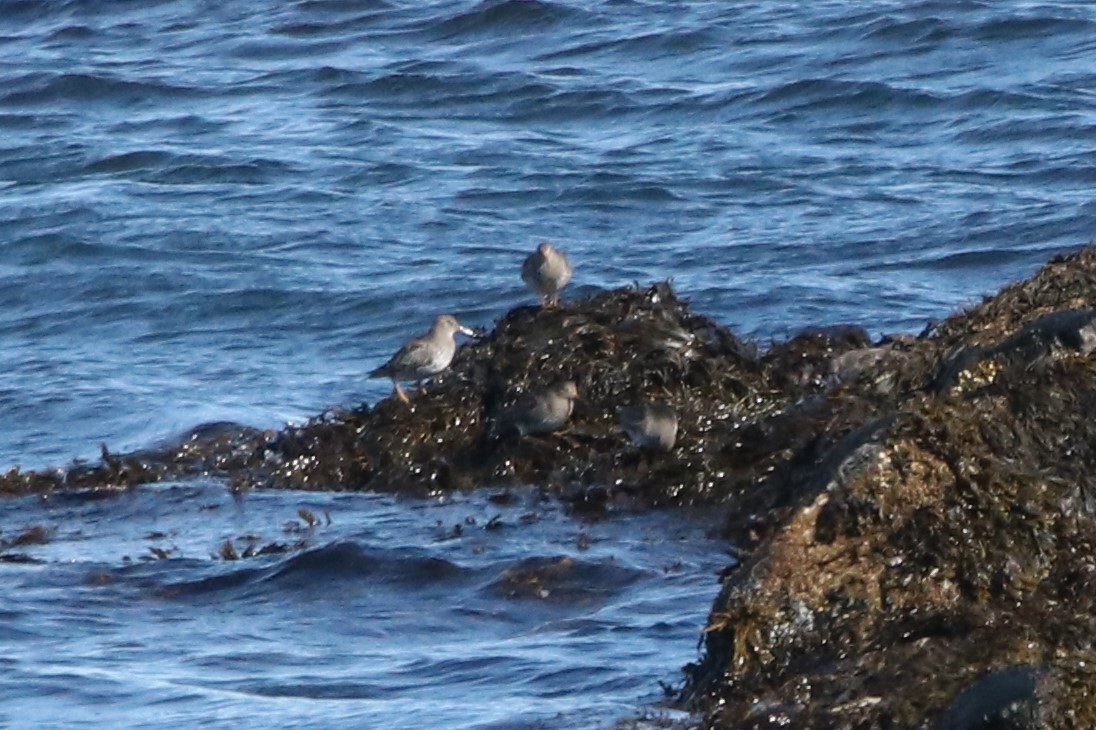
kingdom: Animalia
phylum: Chordata
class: Aves
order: Charadriiformes
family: Scolopacidae
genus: Calidris
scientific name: Calidris maritima
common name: Purple sandpiper
